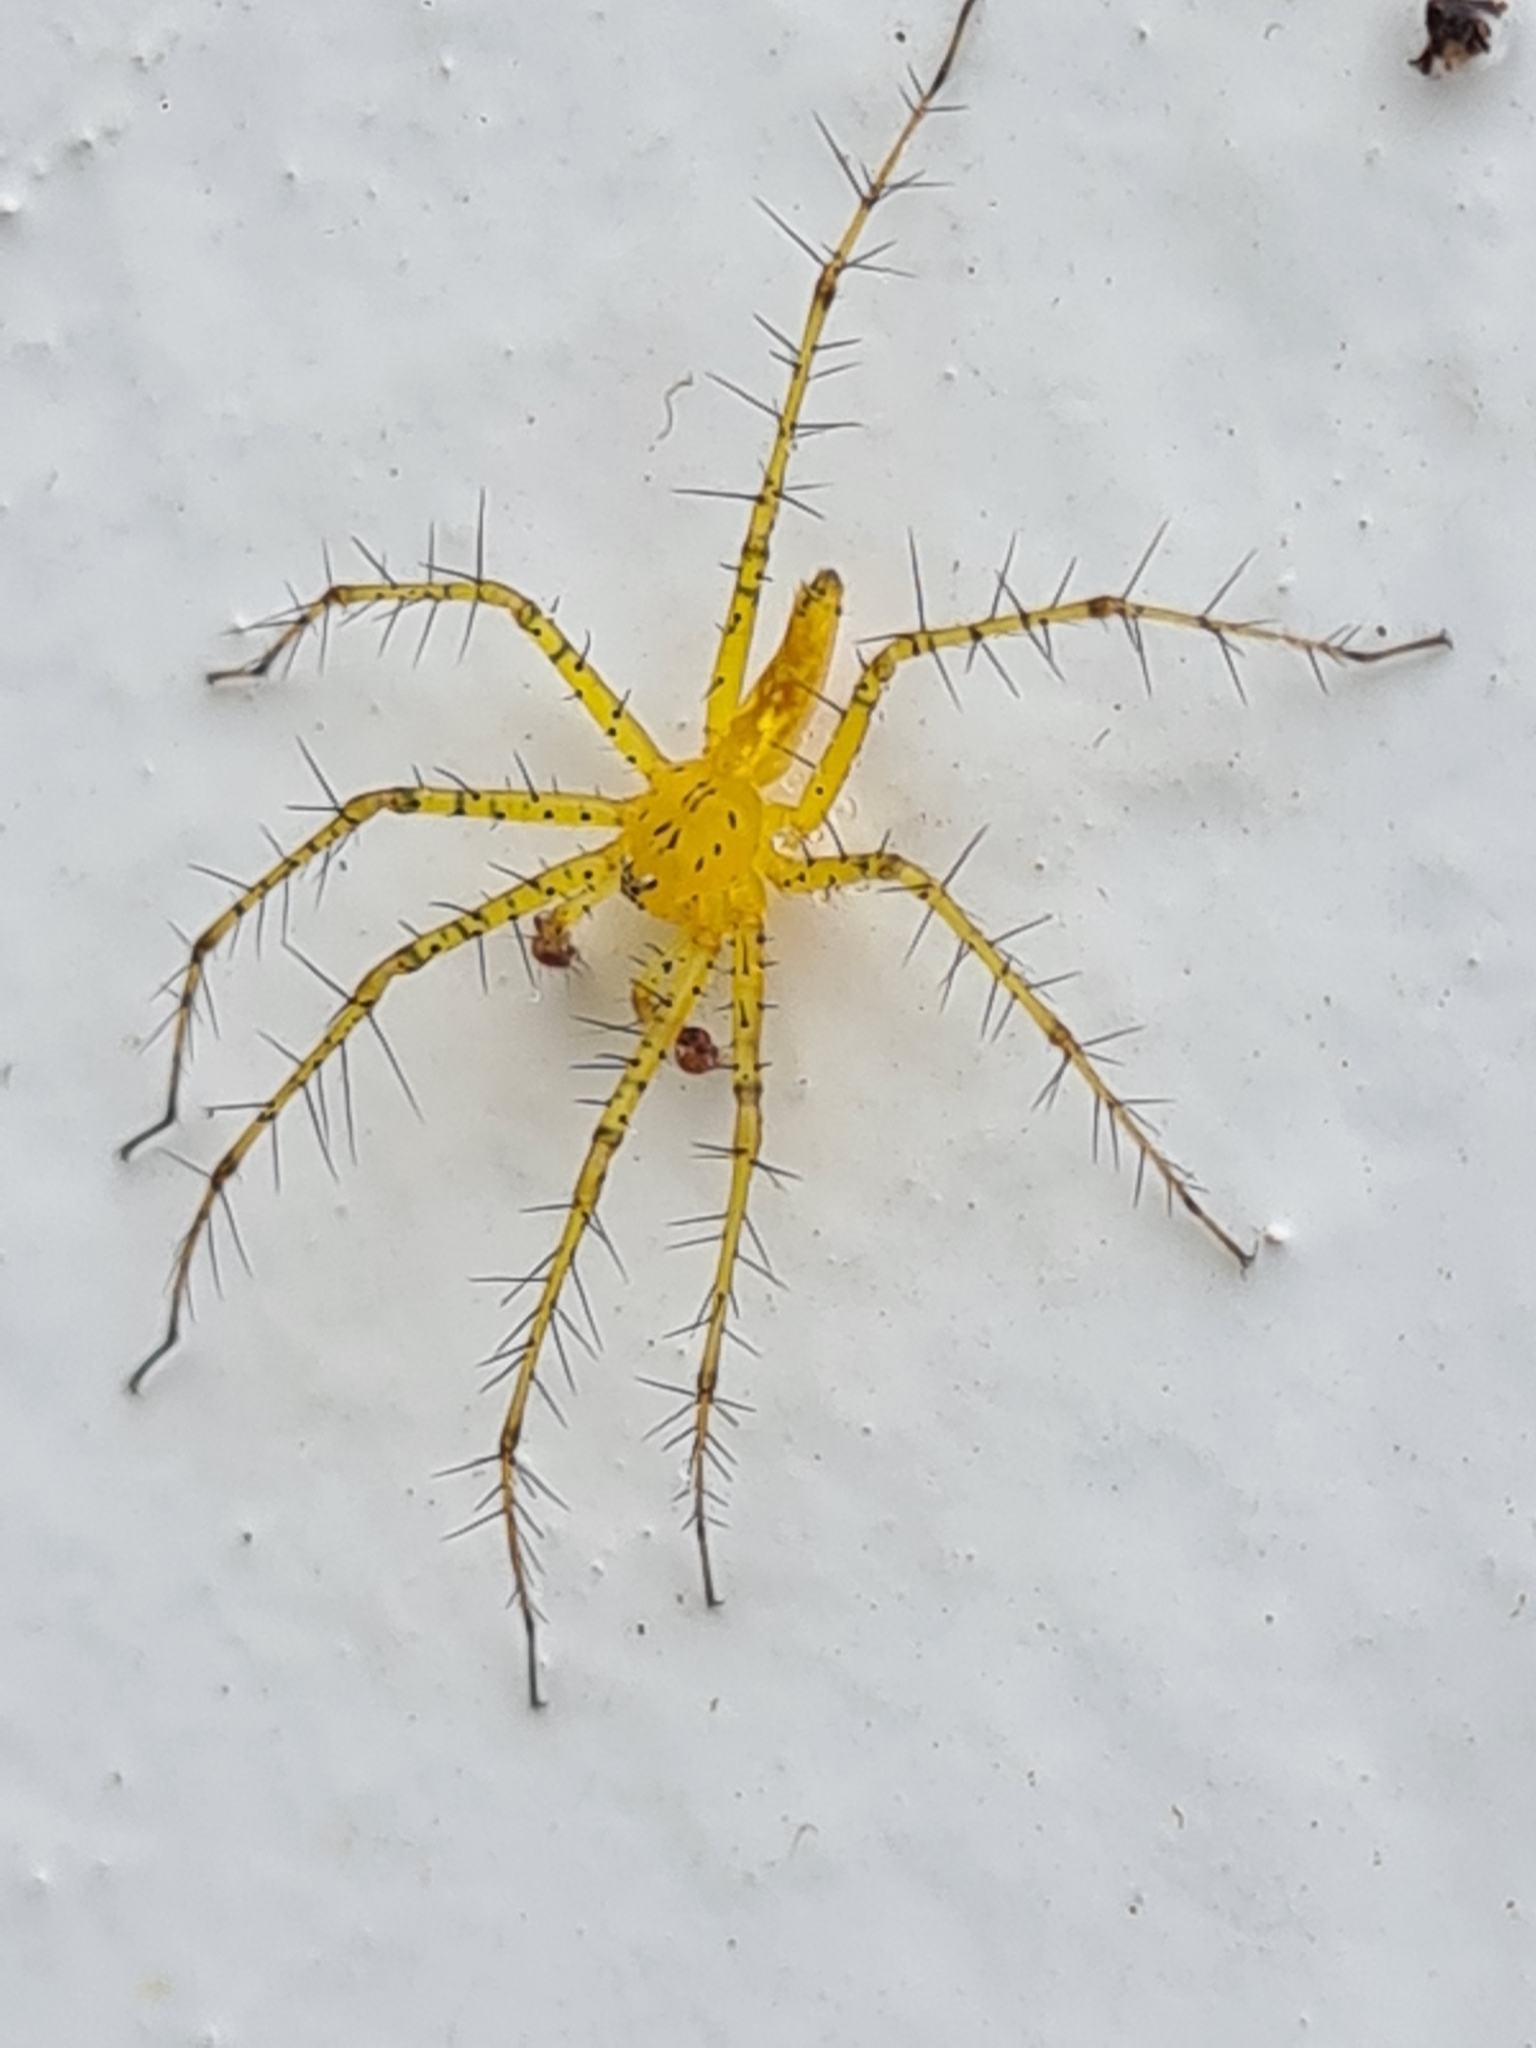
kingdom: Animalia
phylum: Arthropoda
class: Arachnida
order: Araneae
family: Pisauridae
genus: Architis
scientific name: Architis spinipes
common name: Nursery web spiders
